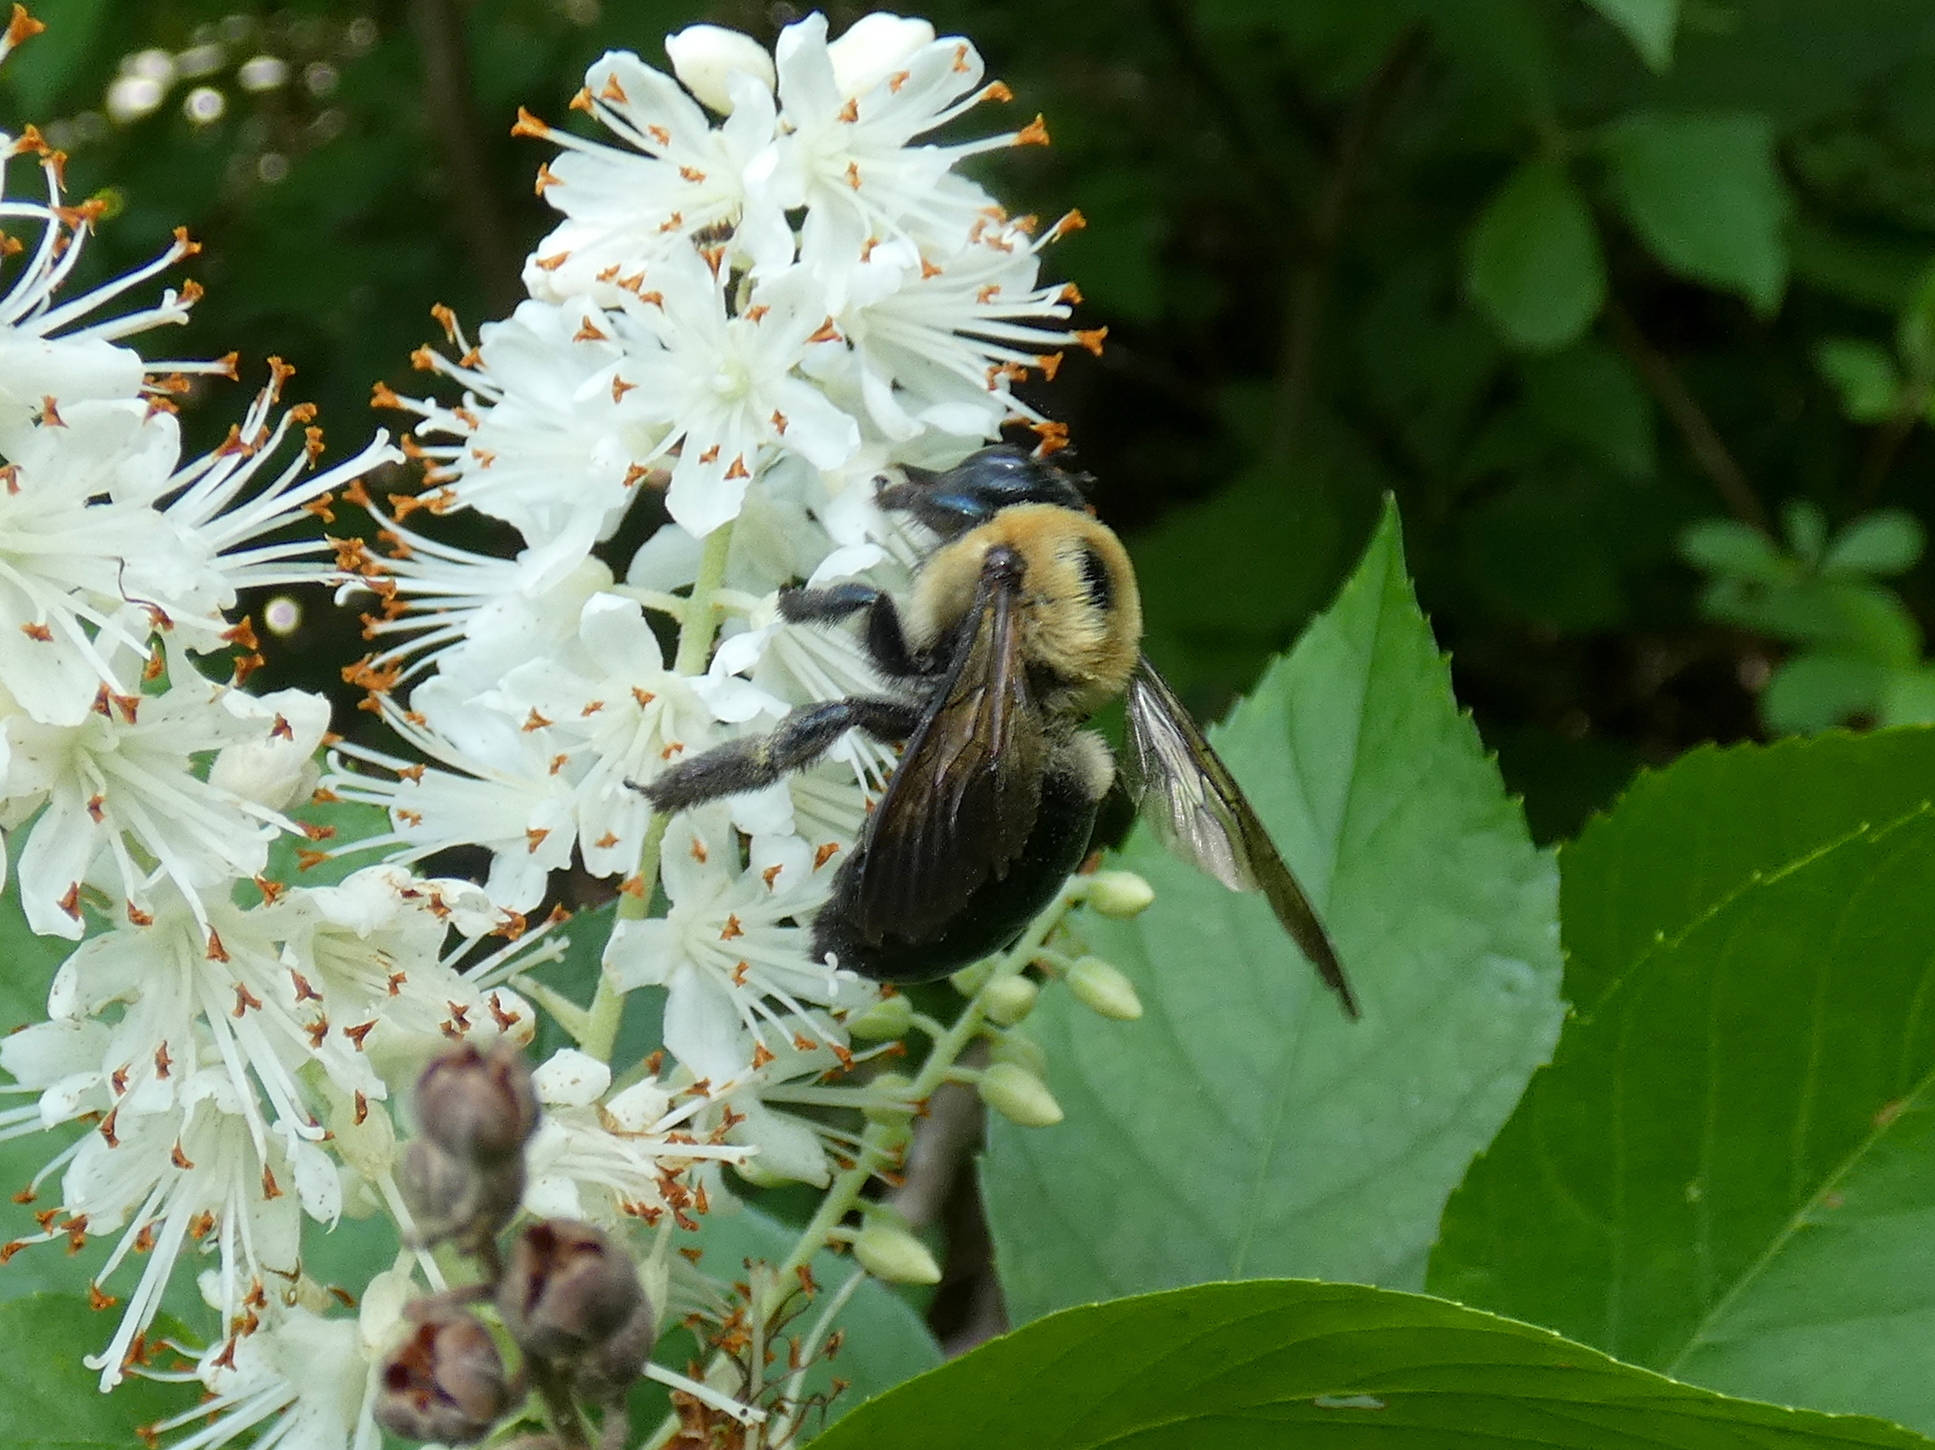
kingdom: Animalia
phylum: Arthropoda
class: Insecta
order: Hymenoptera
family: Apidae
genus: Xylocopa
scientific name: Xylocopa virginica
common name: Carpenter bee
